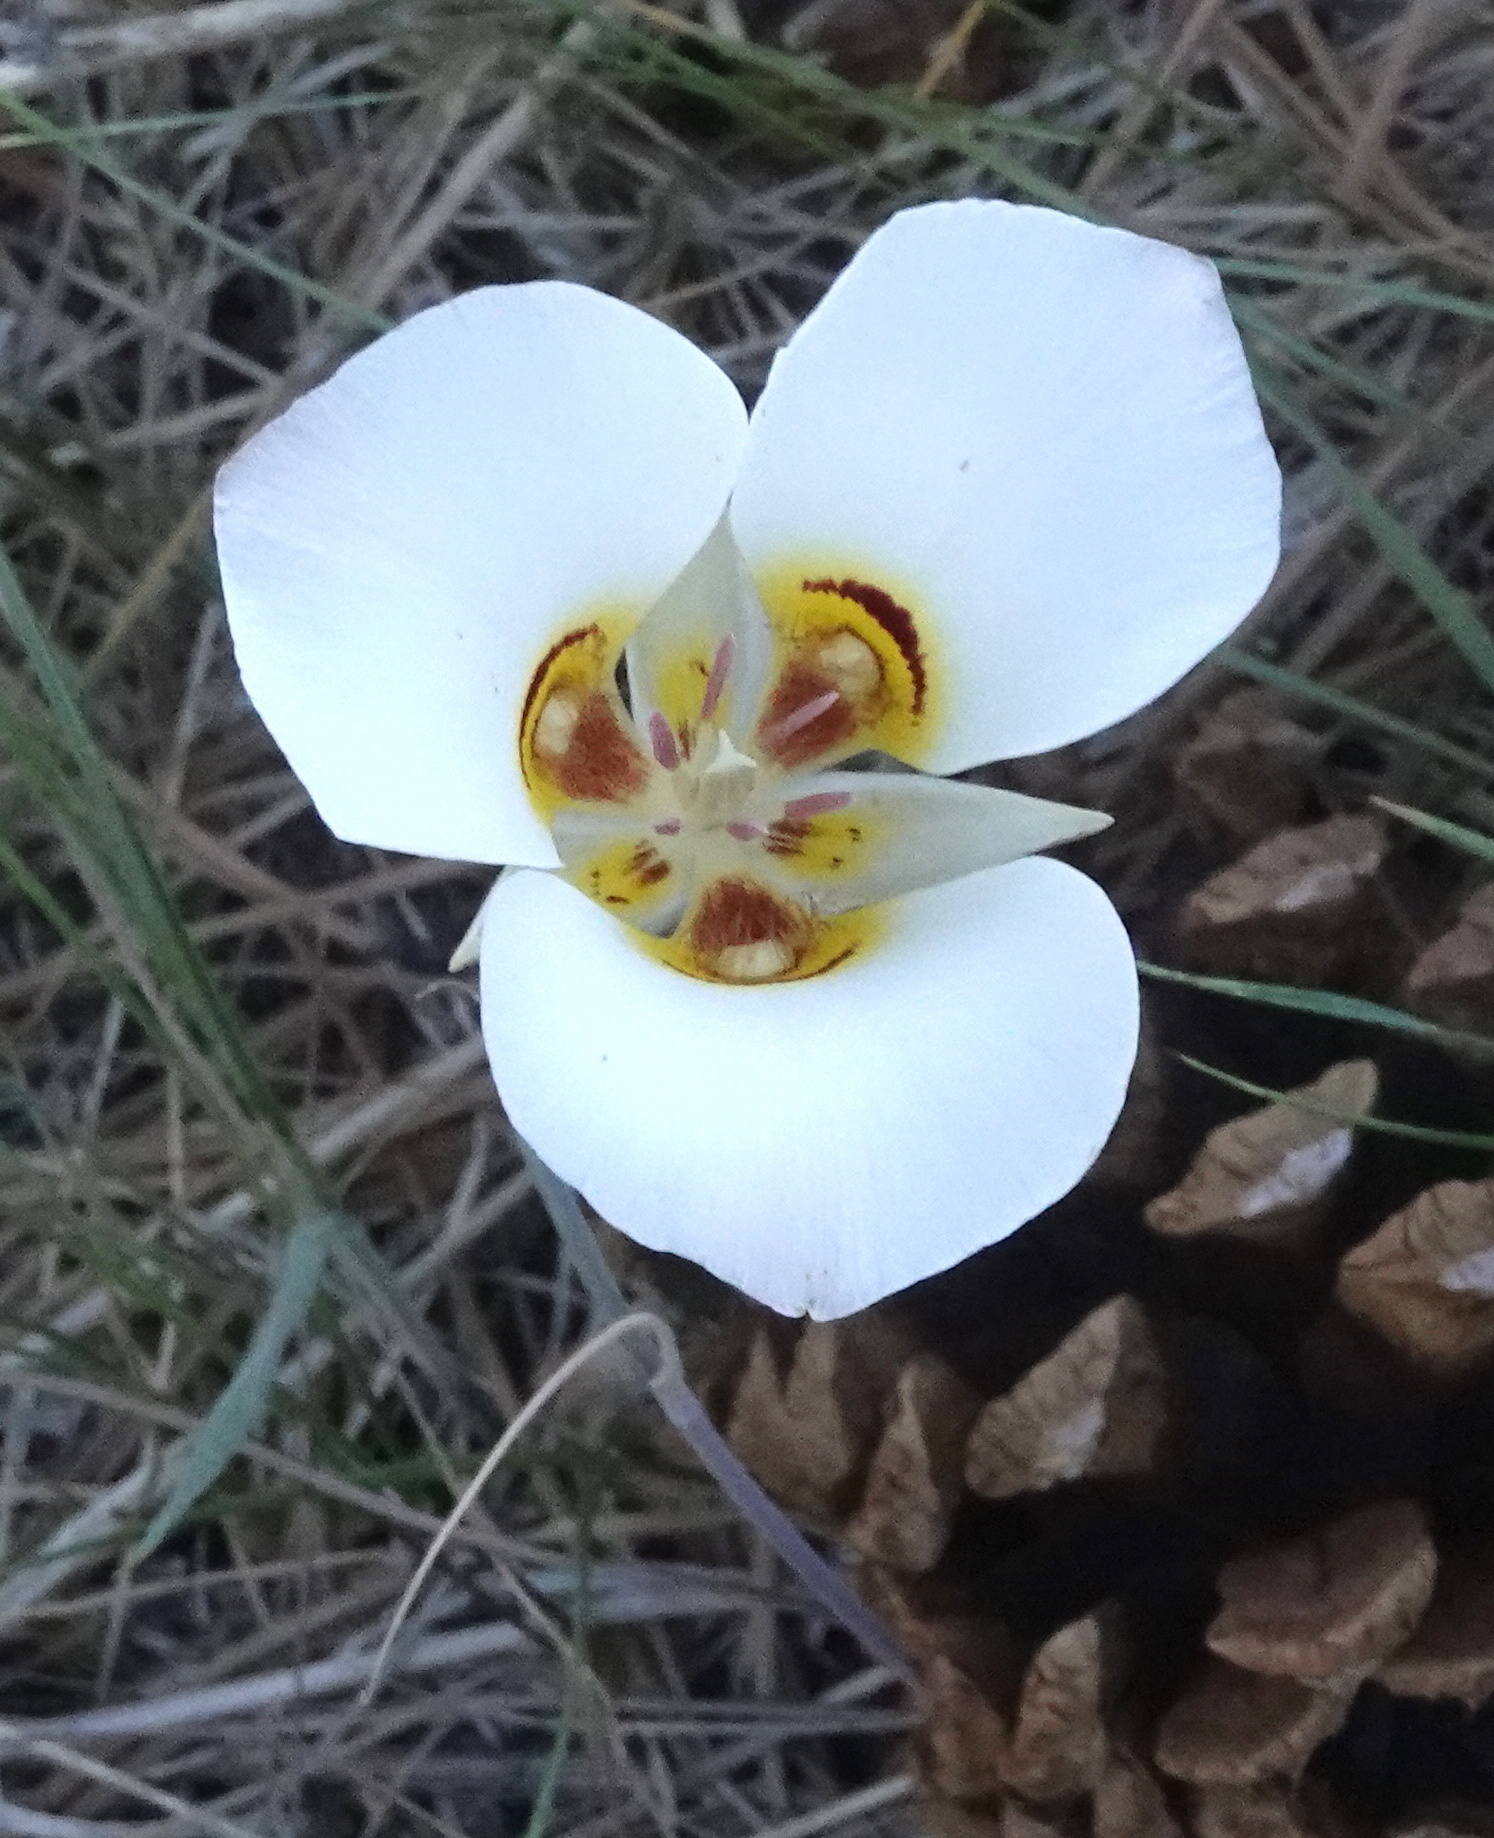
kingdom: Plantae
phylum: Tracheophyta
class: Liliopsida
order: Liliales
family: Liliaceae
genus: Calochortus
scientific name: Calochortus nuttallii
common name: Sego-lily
